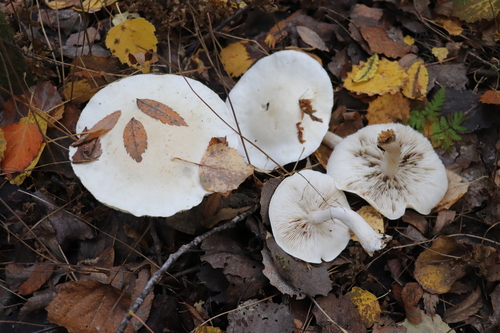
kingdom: Fungi
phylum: Basidiomycota
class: Agaricomycetes
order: Agaricales
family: Tricholomataceae
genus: Clitocybe
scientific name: Clitocybe nebularis
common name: Clouded agaric
